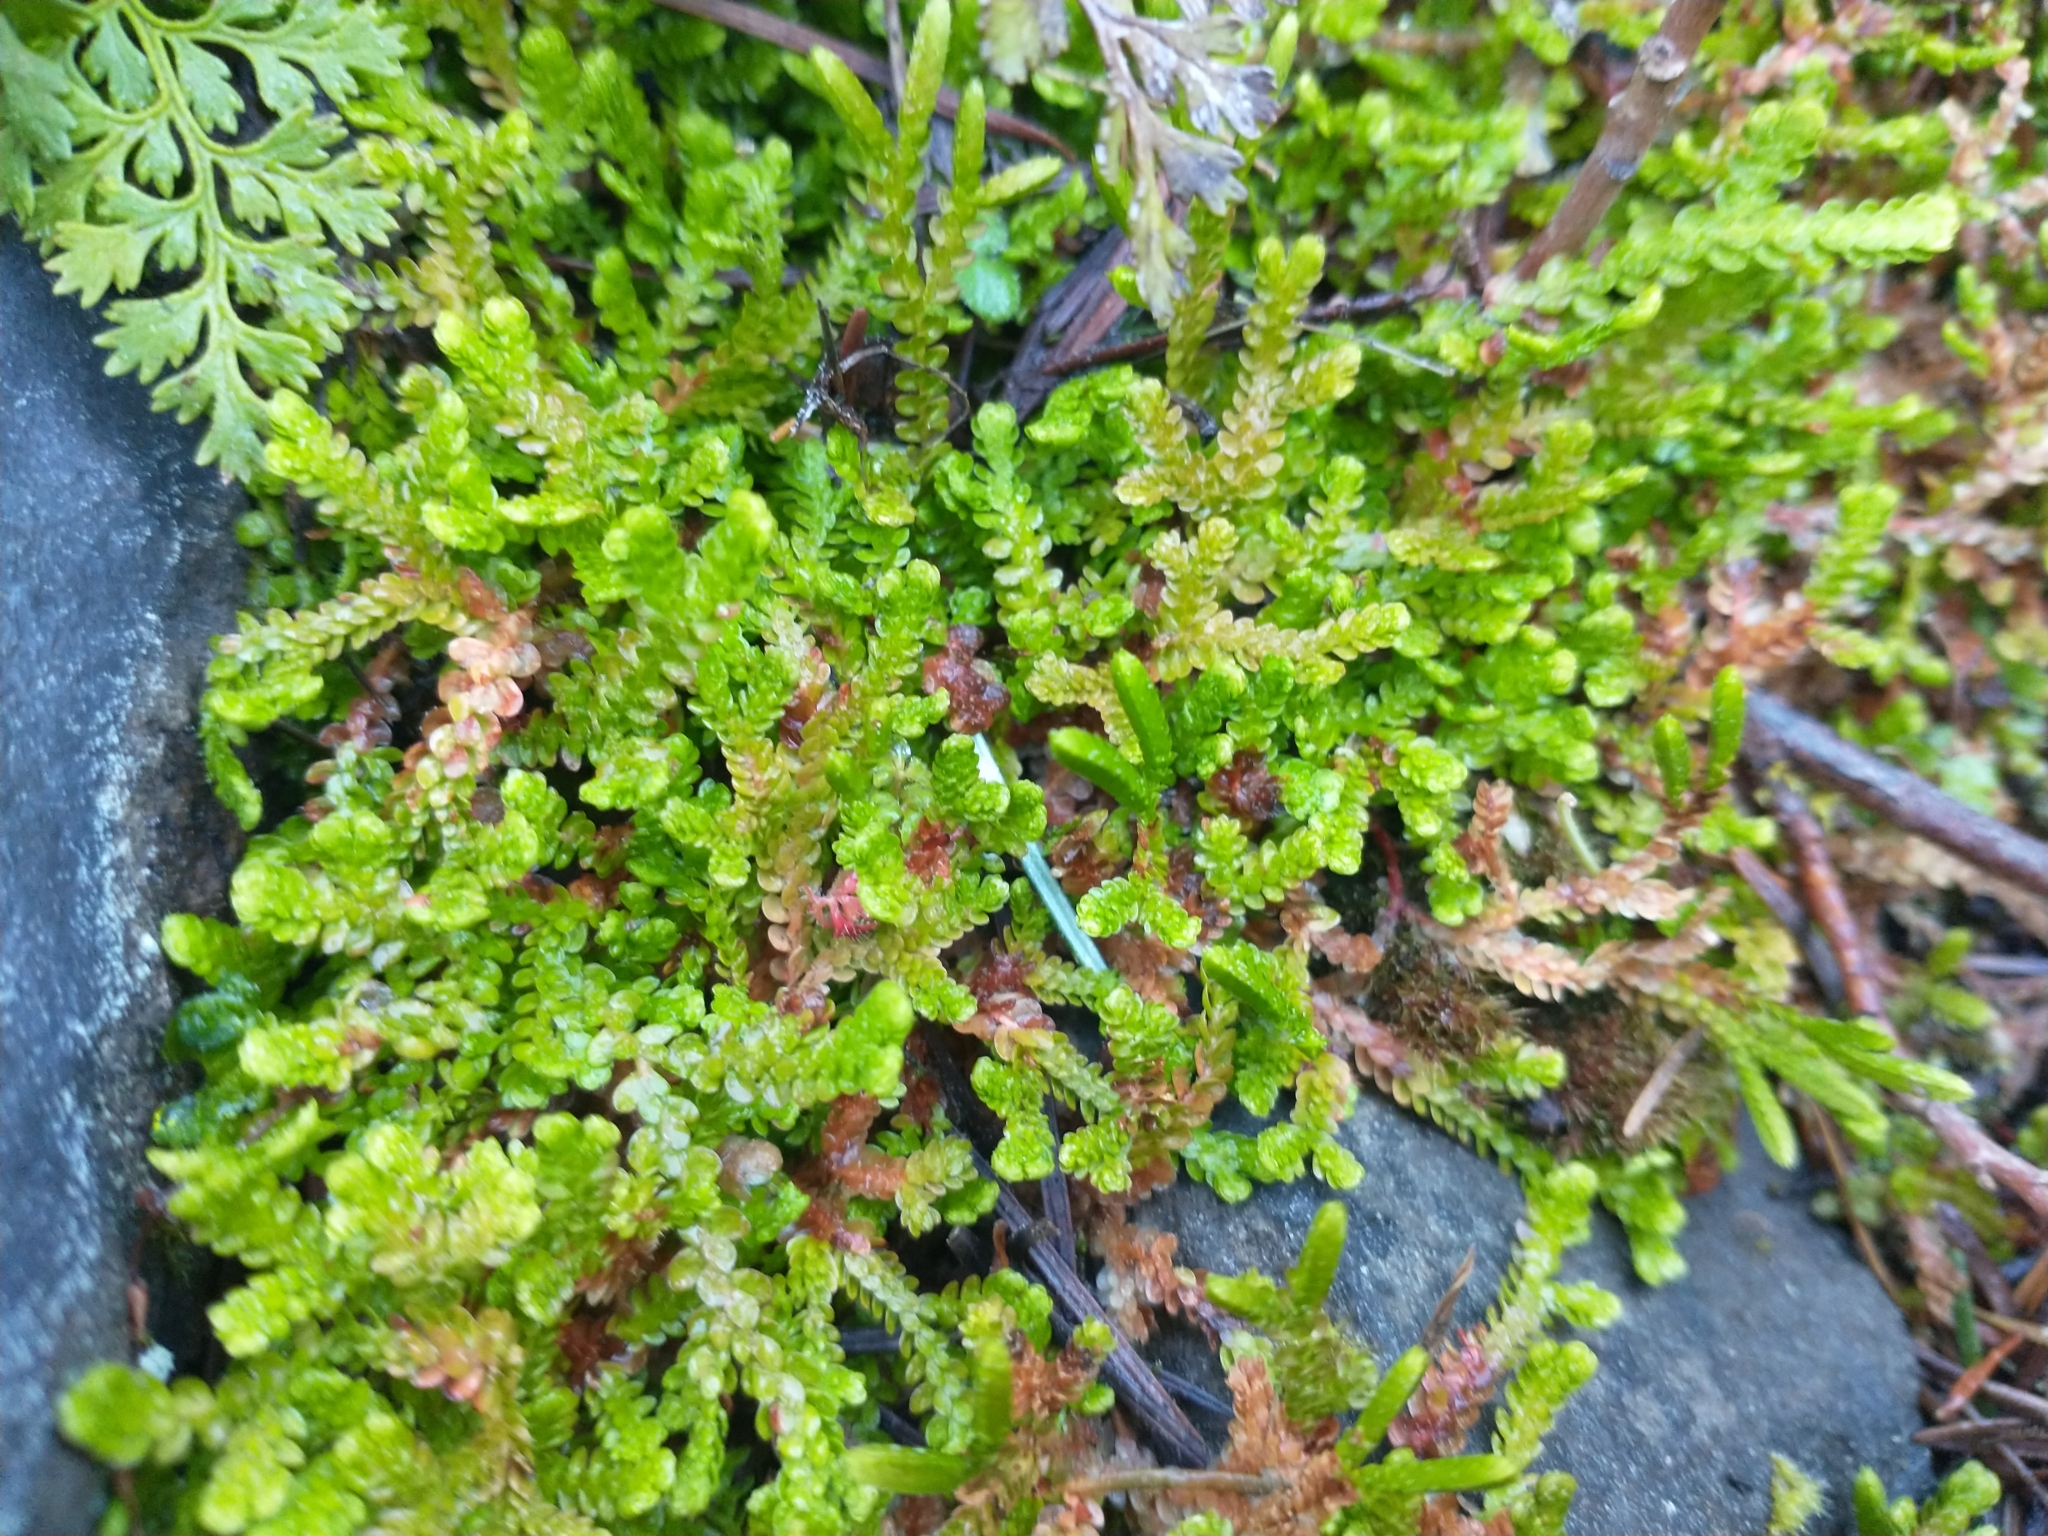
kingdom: Plantae
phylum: Tracheophyta
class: Lycopodiopsida
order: Selaginellales
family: Selaginellaceae
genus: Selaginella
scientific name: Selaginella douglasii
